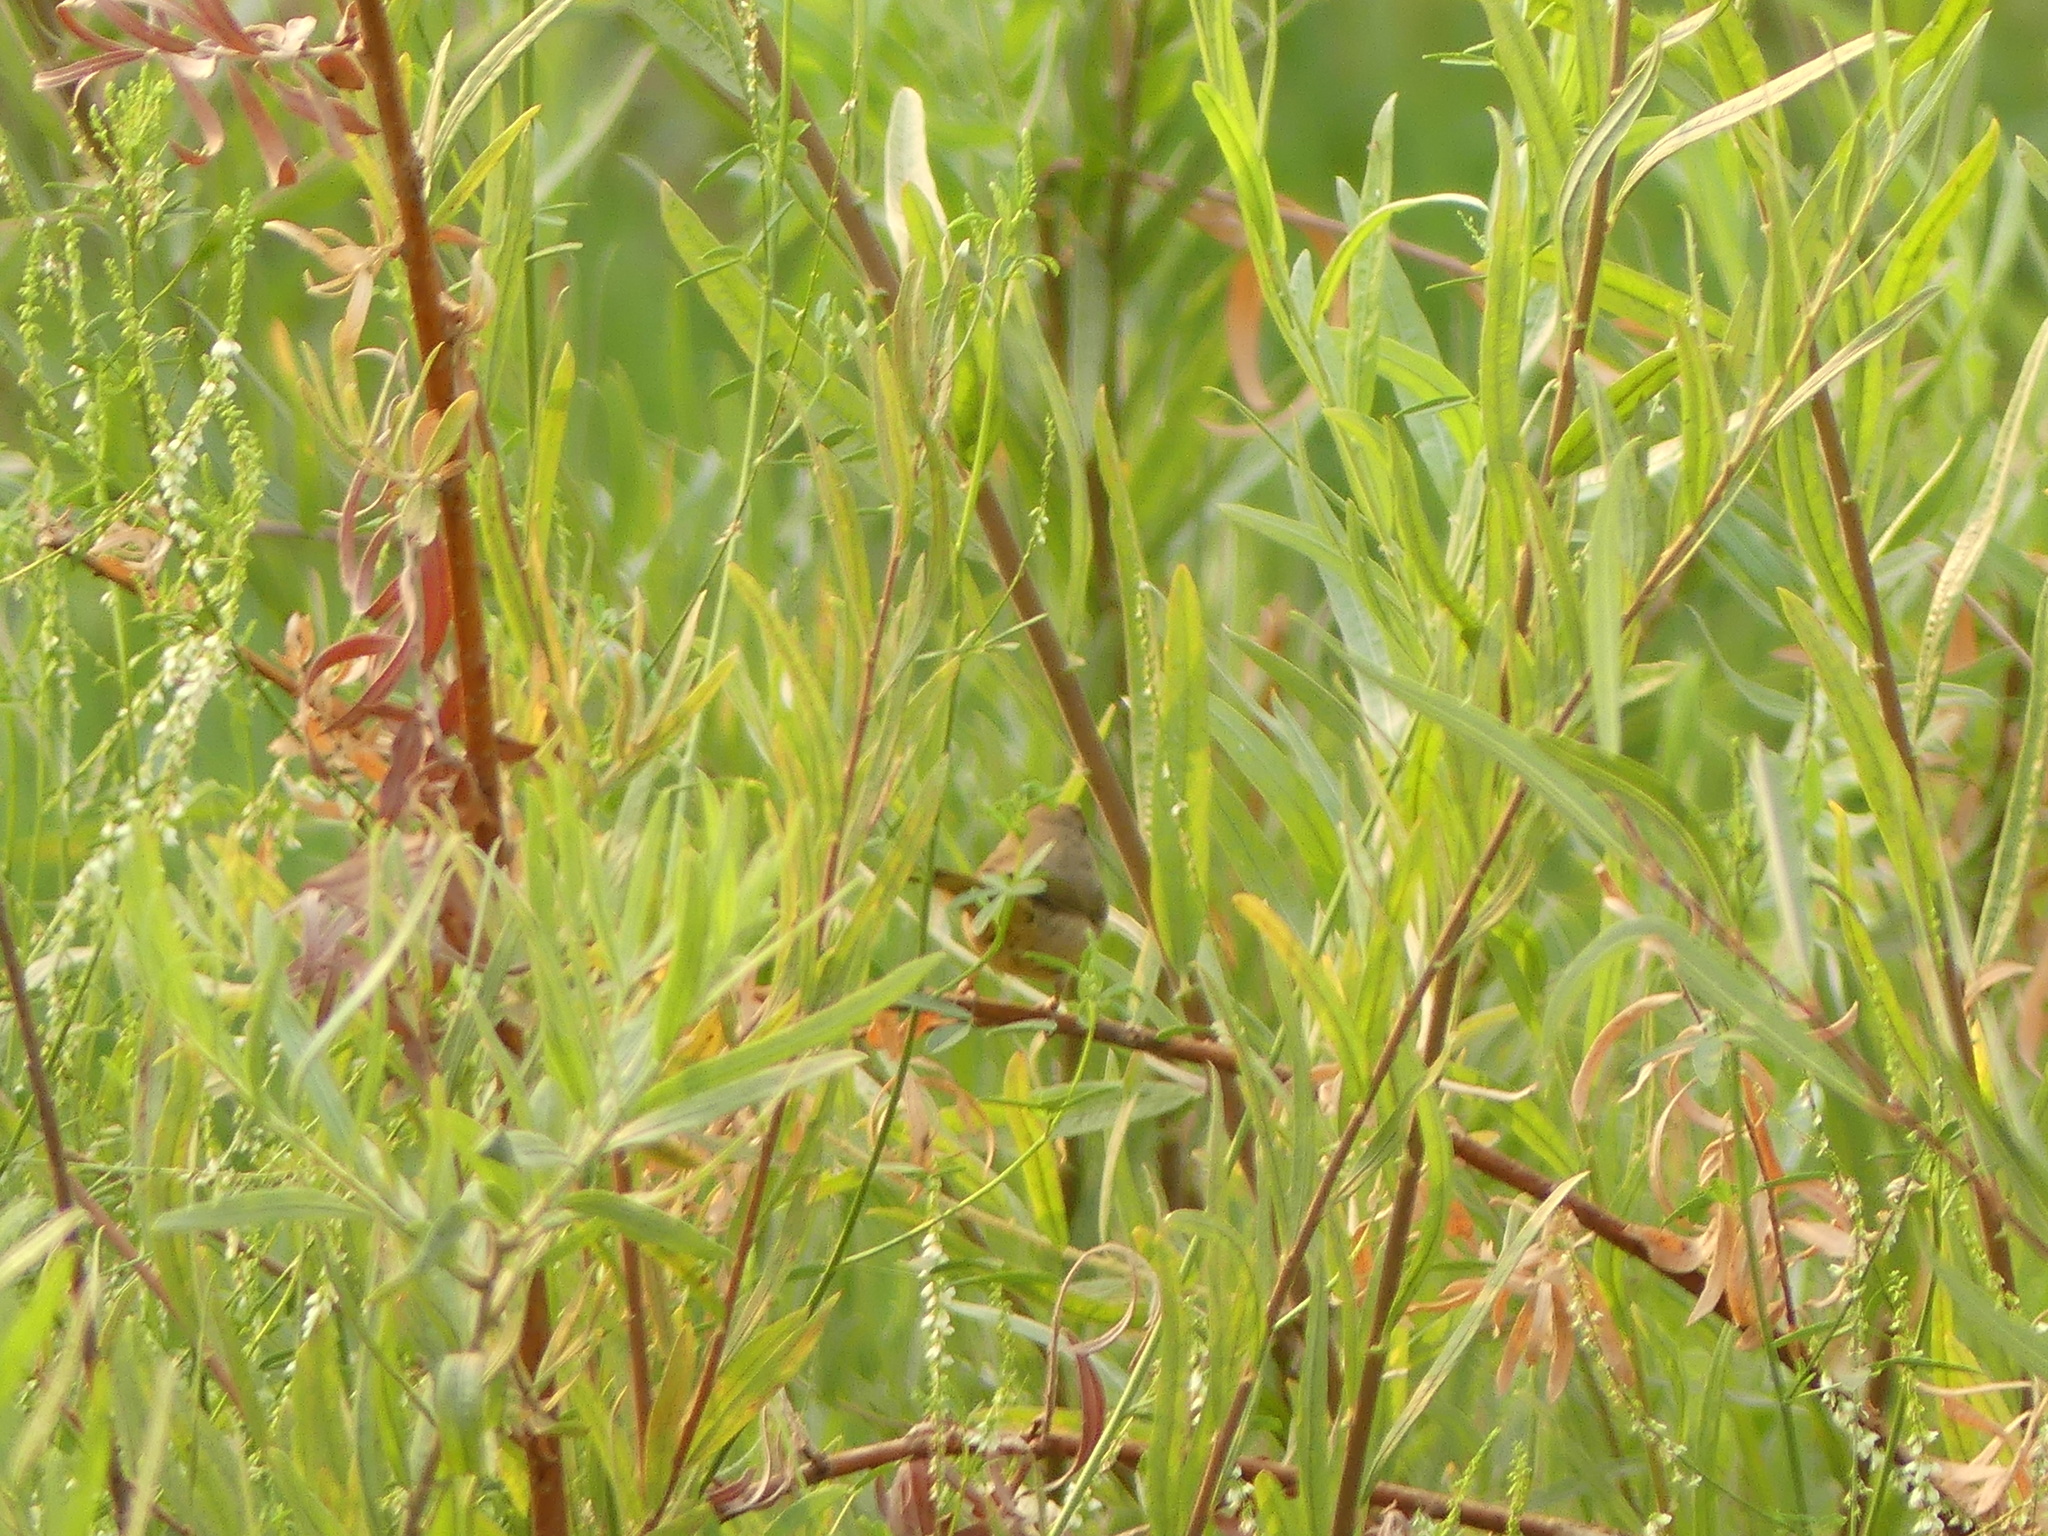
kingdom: Animalia
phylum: Chordata
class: Aves
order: Passeriformes
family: Parulidae
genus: Geothlypis
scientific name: Geothlypis trichas
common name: Common yellowthroat
